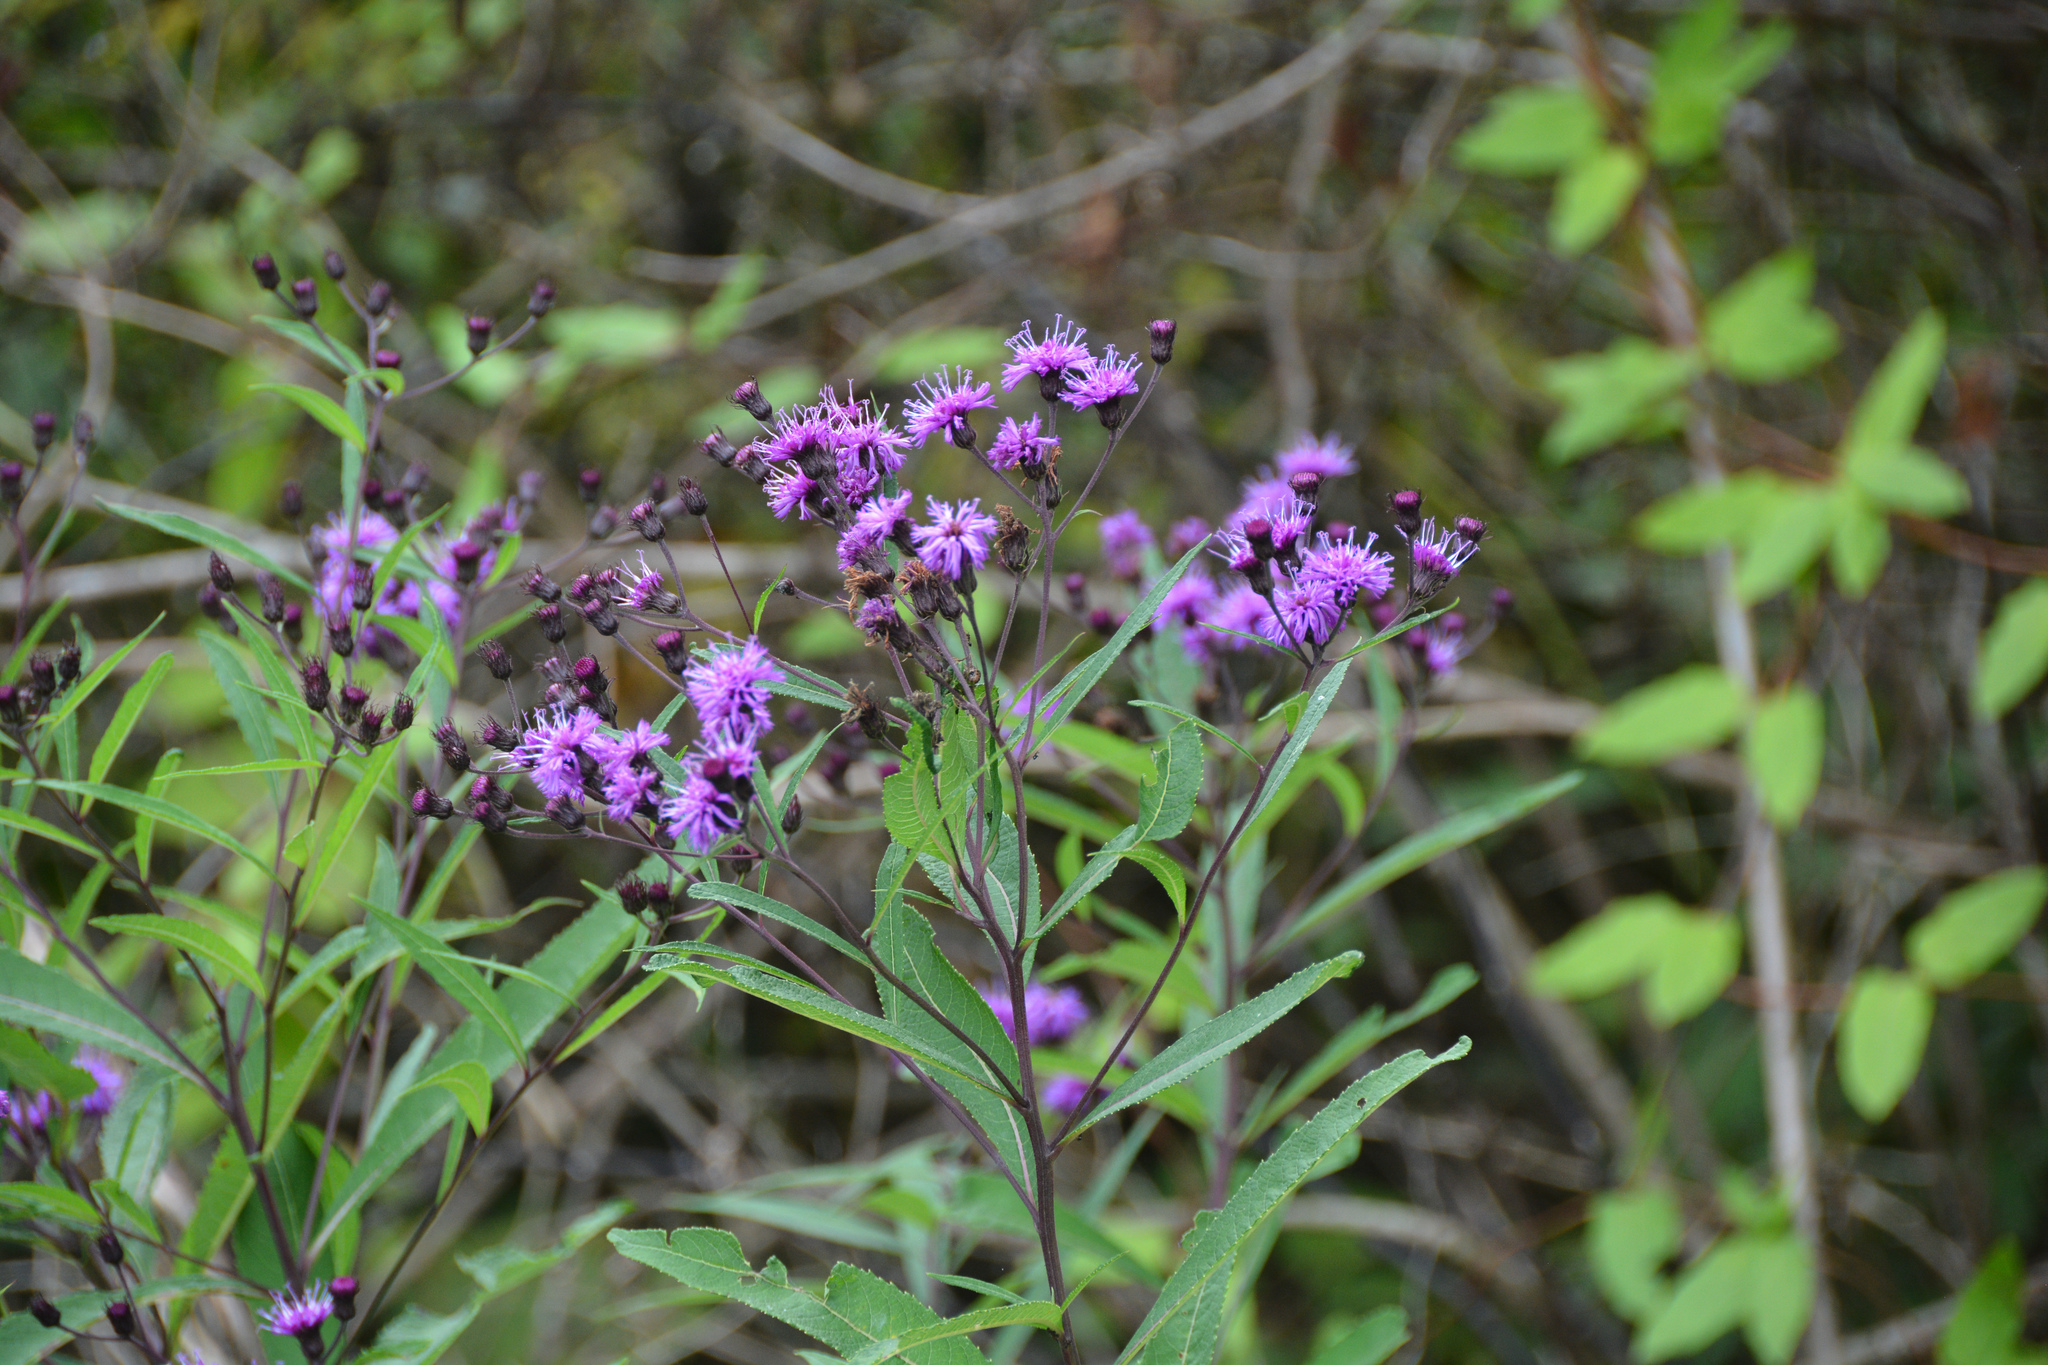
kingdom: Plantae
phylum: Tracheophyta
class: Magnoliopsida
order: Asterales
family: Asteraceae
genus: Vernonia
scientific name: Vernonia noveboracensis
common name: New york ironweed
